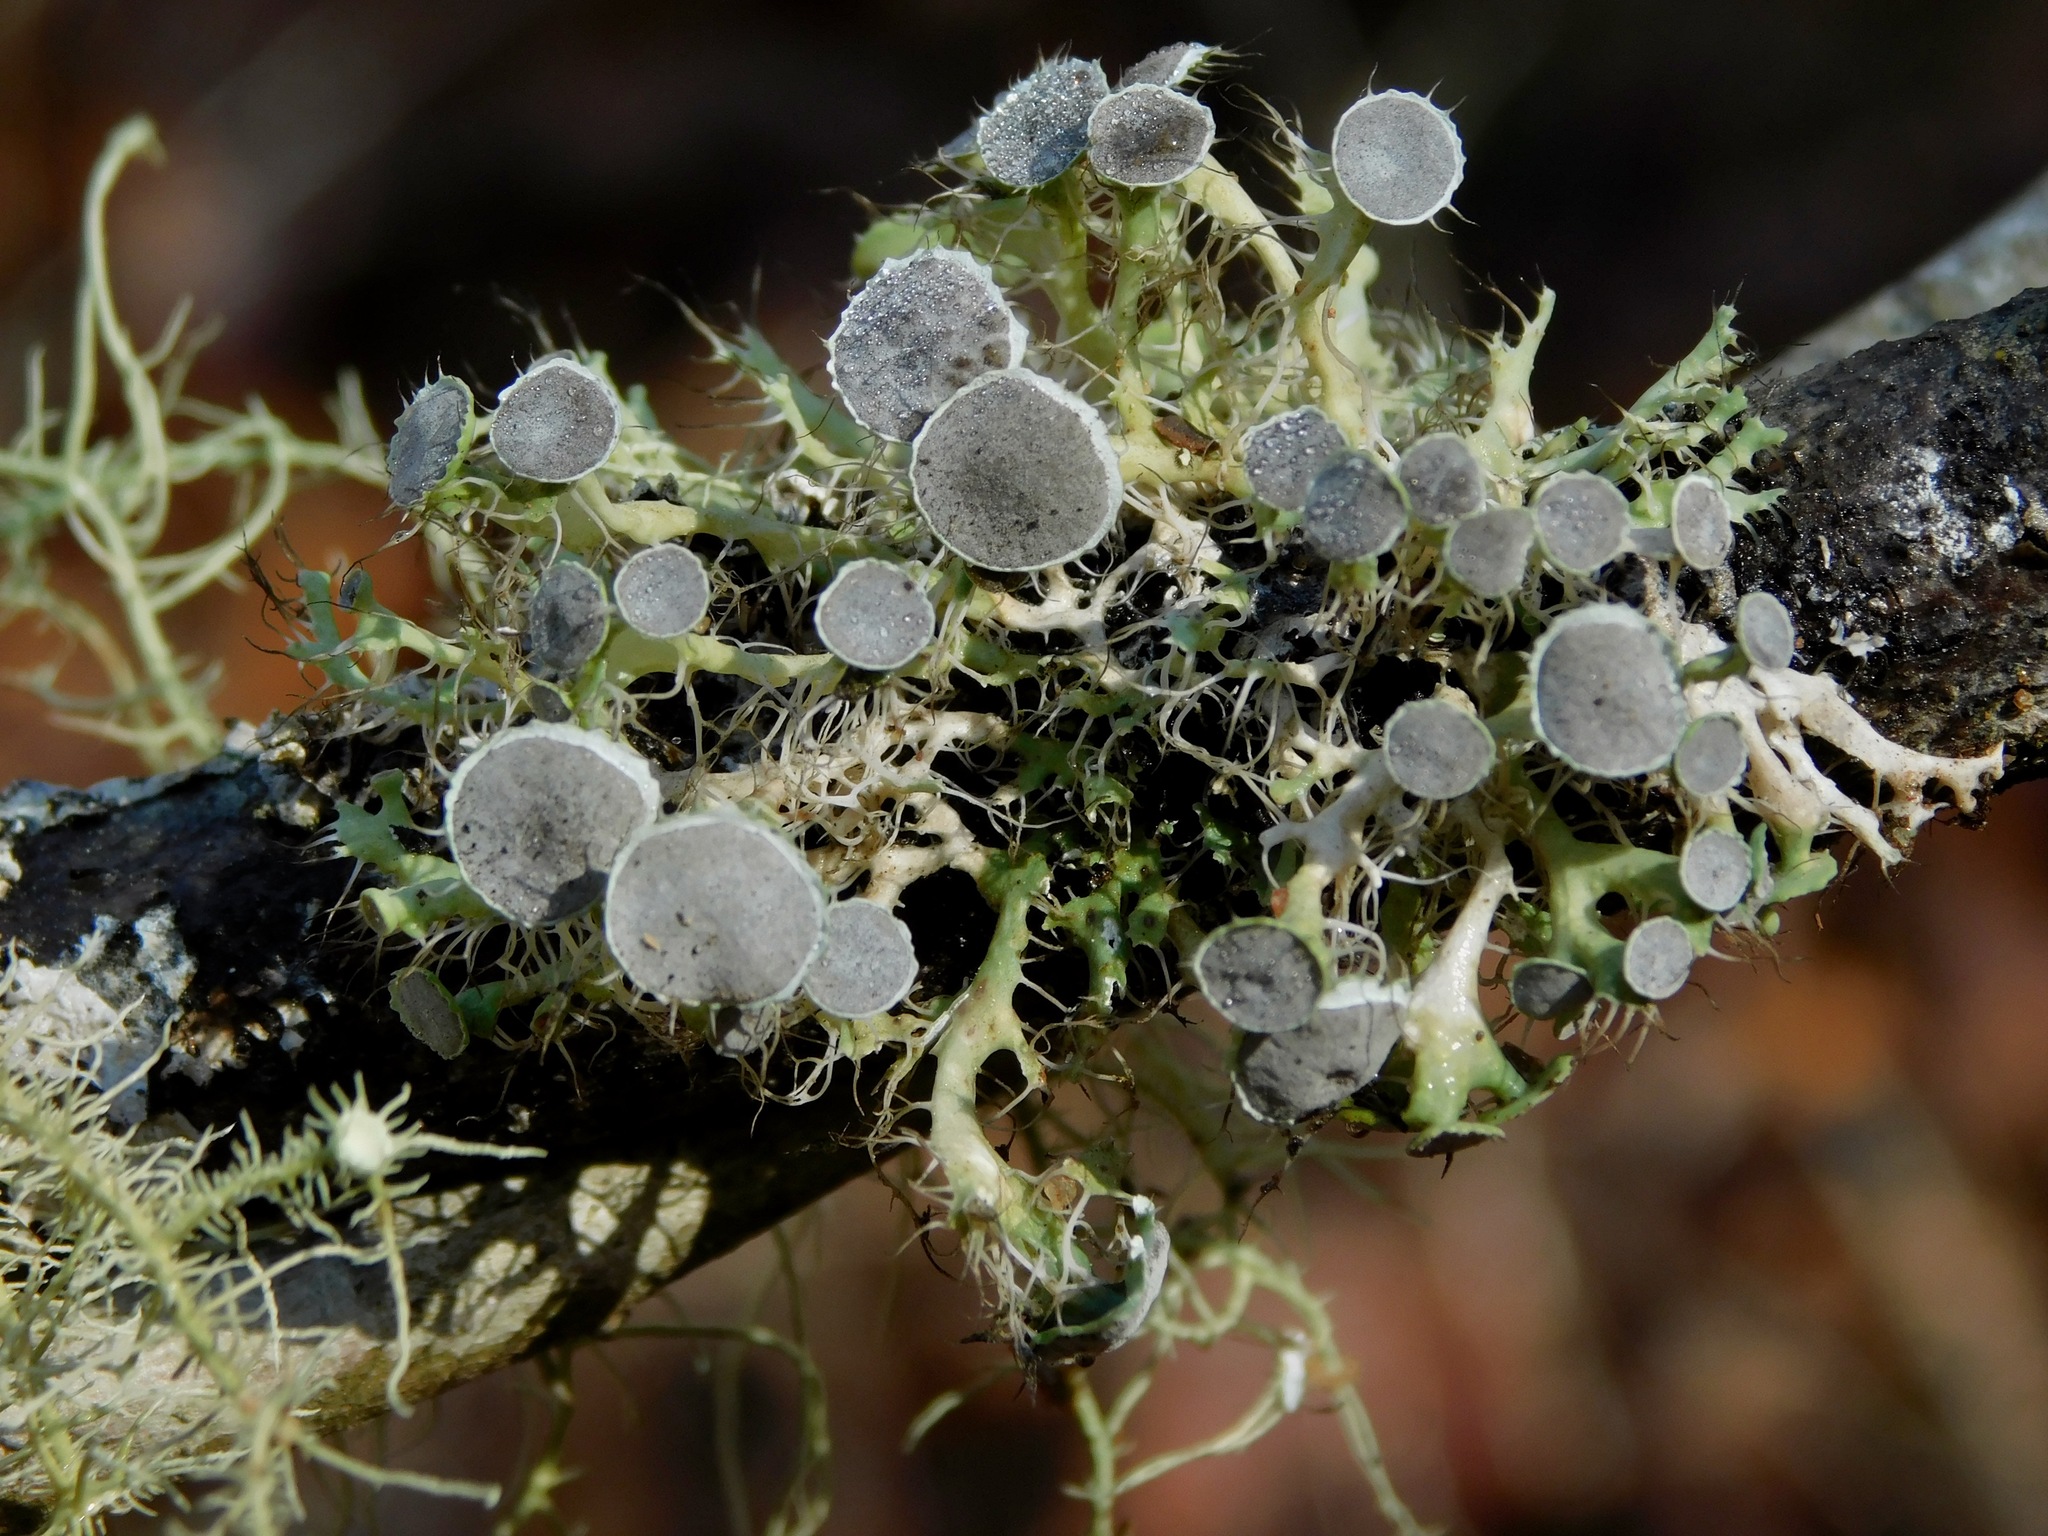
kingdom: Fungi
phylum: Ascomycota
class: Lecanoromycetes
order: Caliciales
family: Physciaceae
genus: Heterodermia
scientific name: Heterodermia echinata
